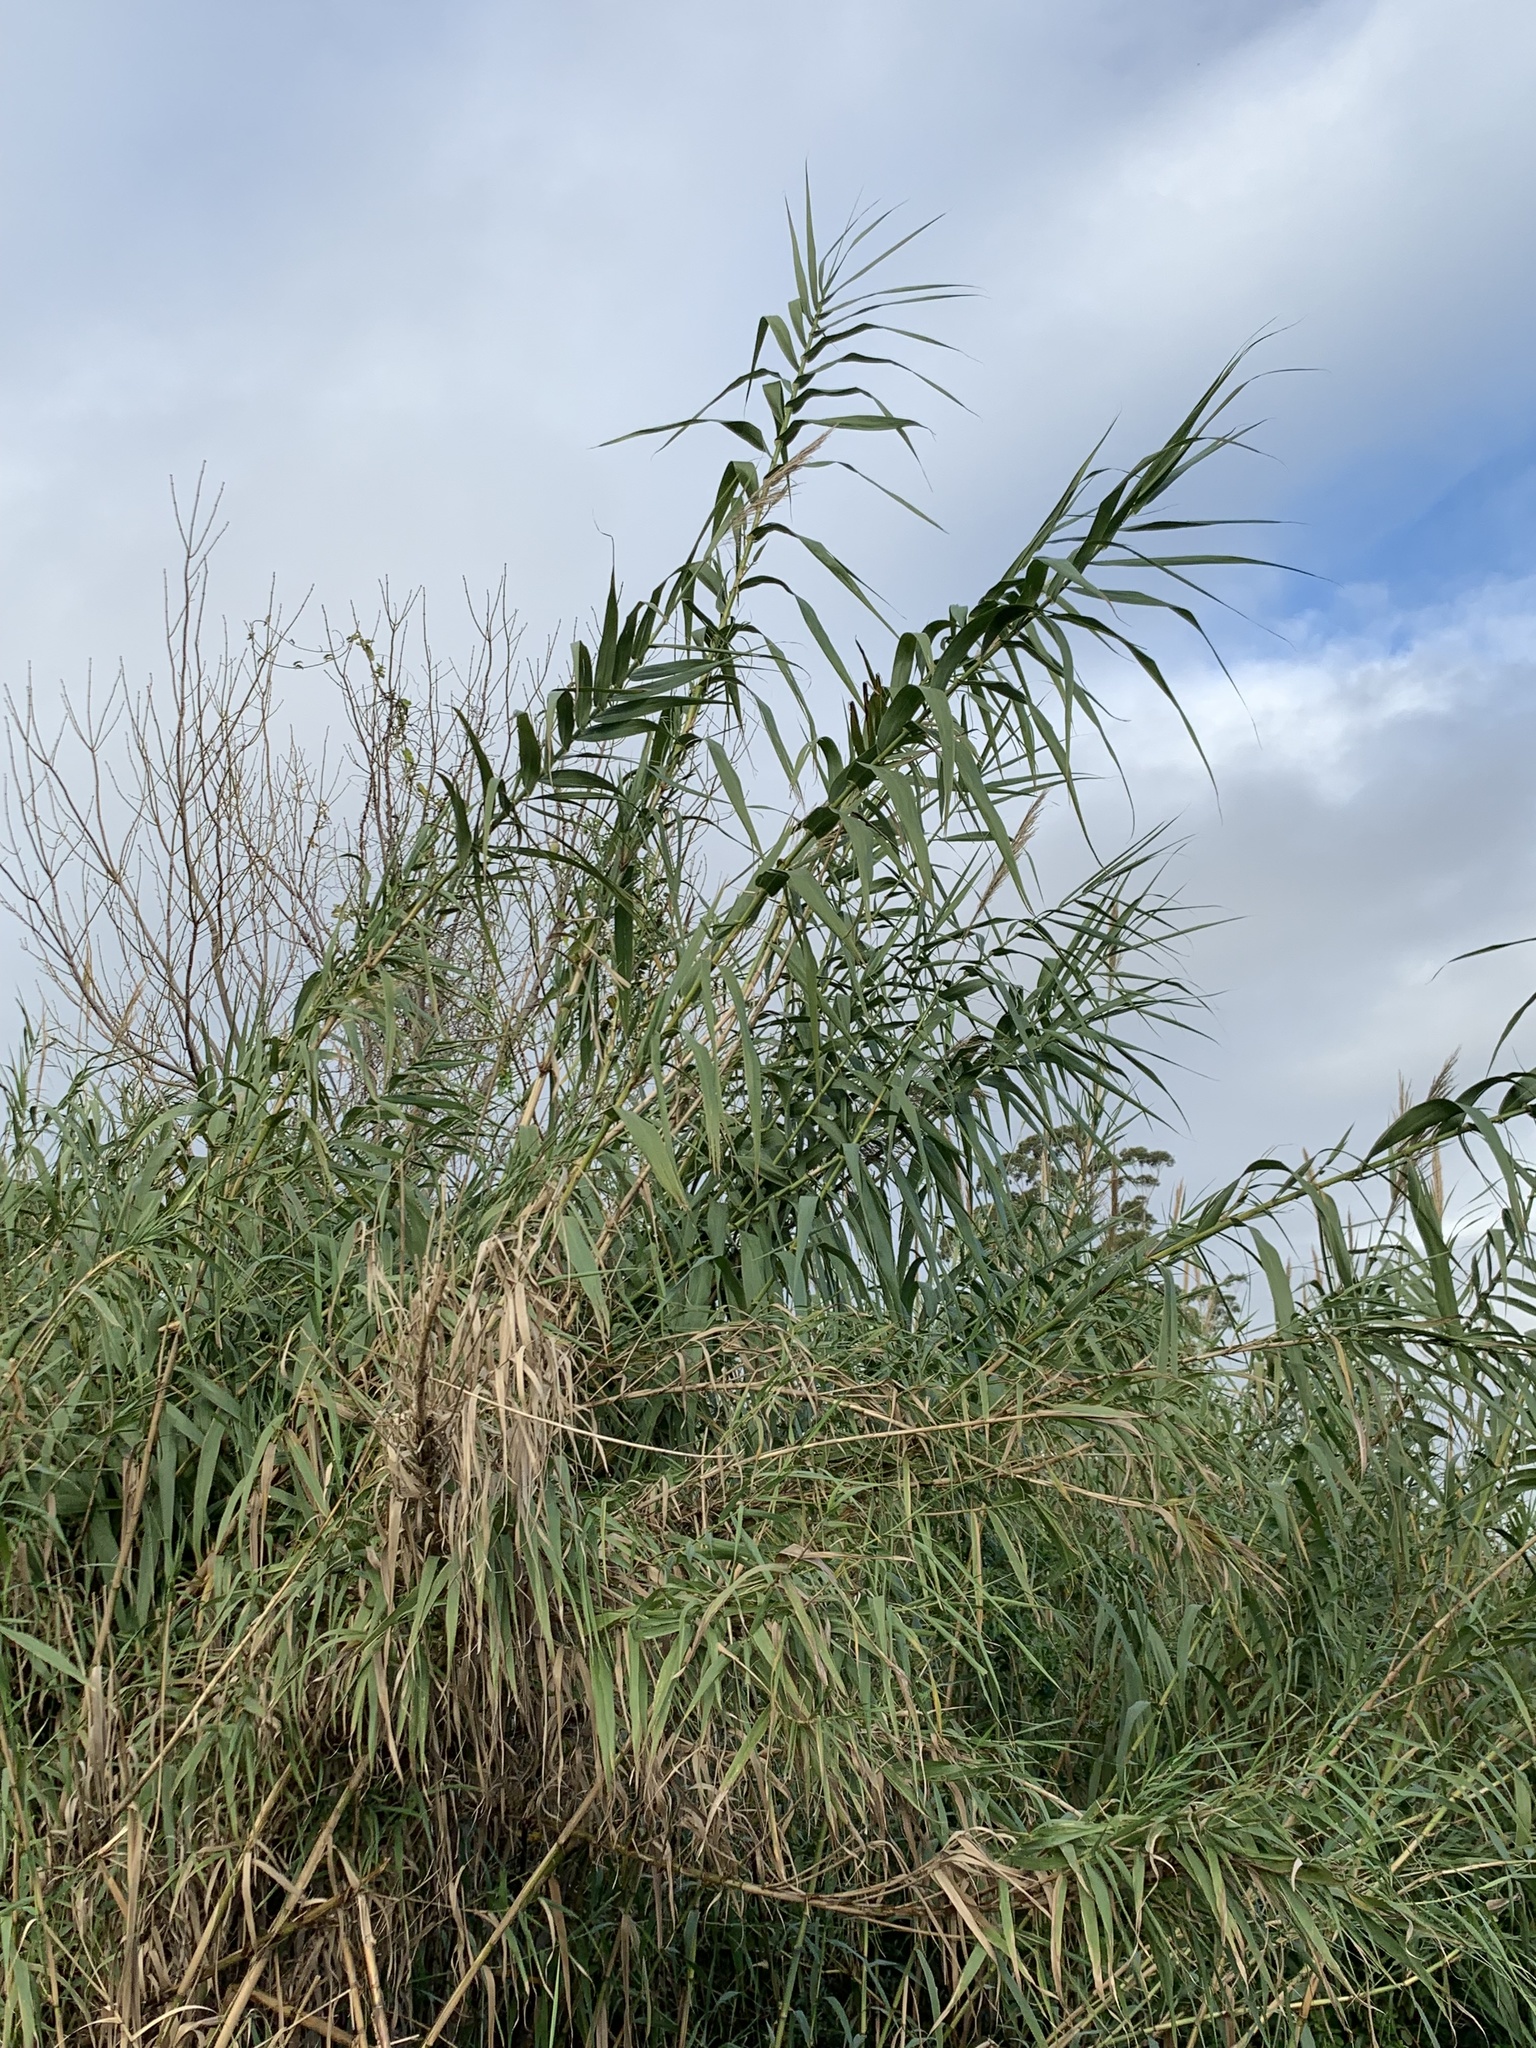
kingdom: Plantae
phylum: Tracheophyta
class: Liliopsida
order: Poales
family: Poaceae
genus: Arundo
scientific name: Arundo donax
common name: Giant reed
